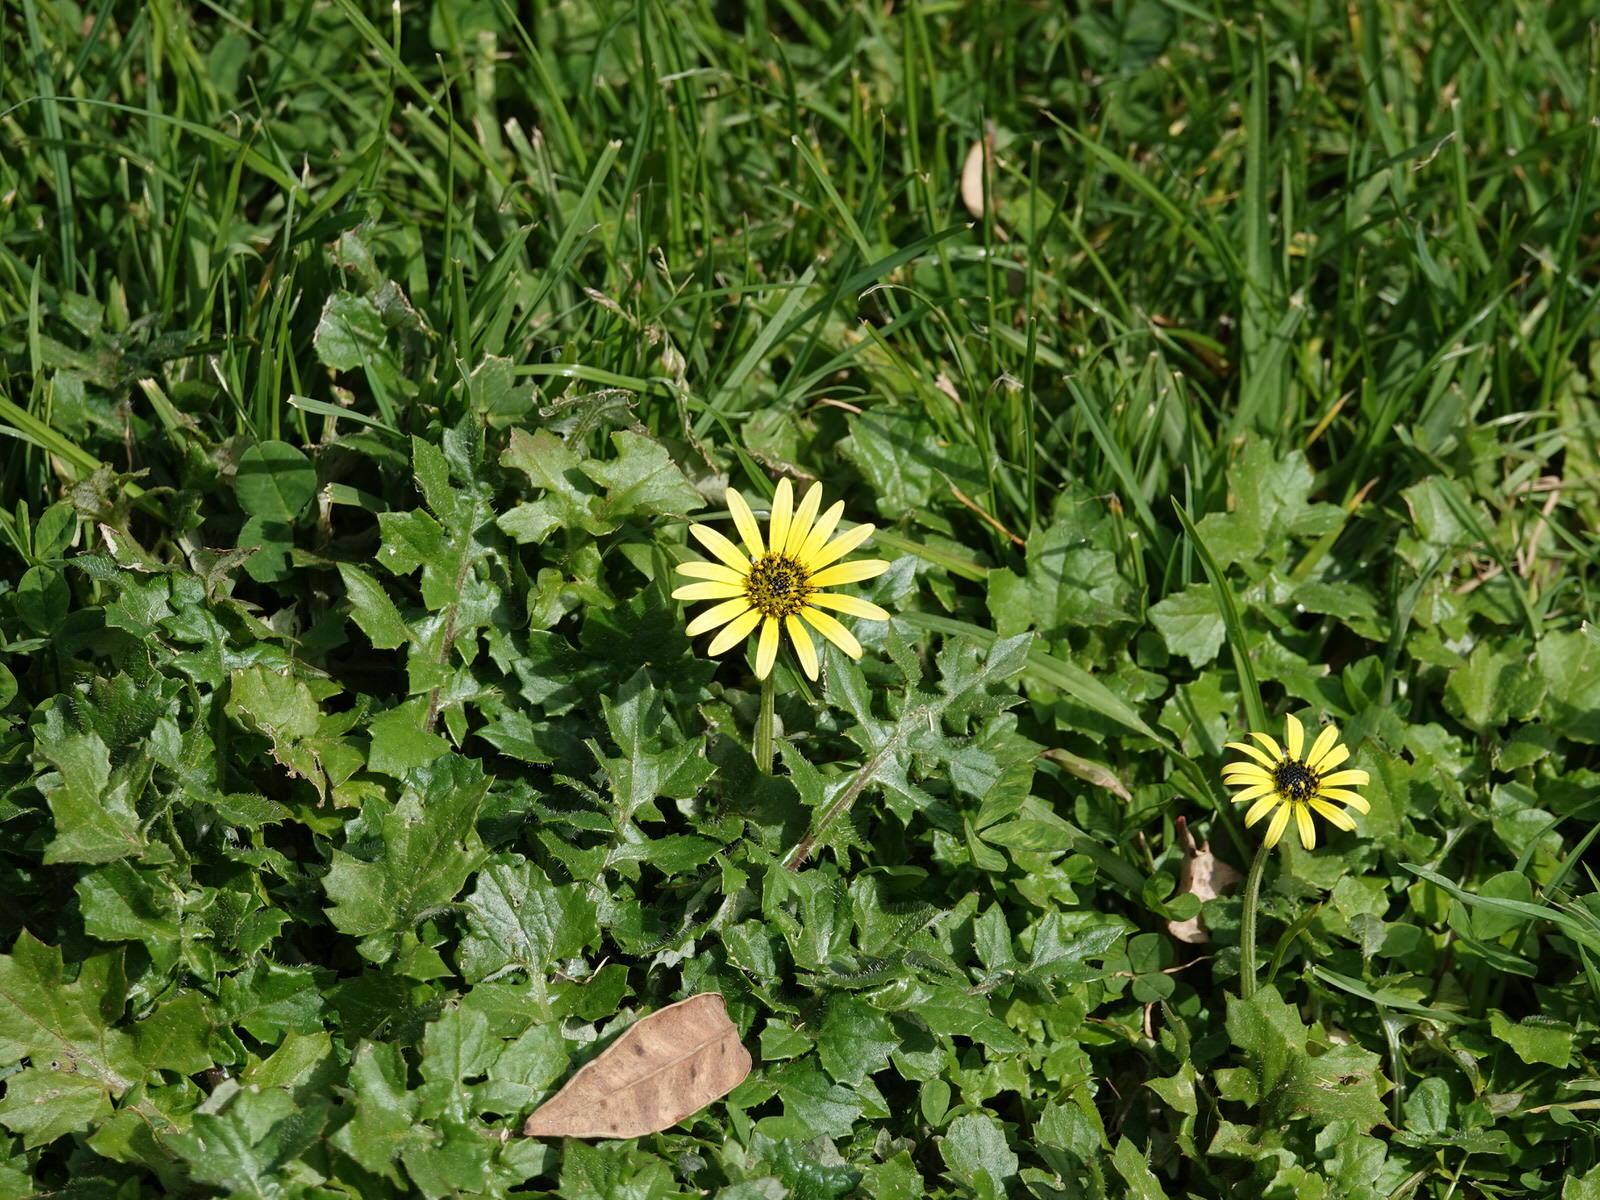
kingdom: Plantae
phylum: Tracheophyta
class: Magnoliopsida
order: Asterales
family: Asteraceae
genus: Arctotheca
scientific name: Arctotheca calendula
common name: Capeweed
